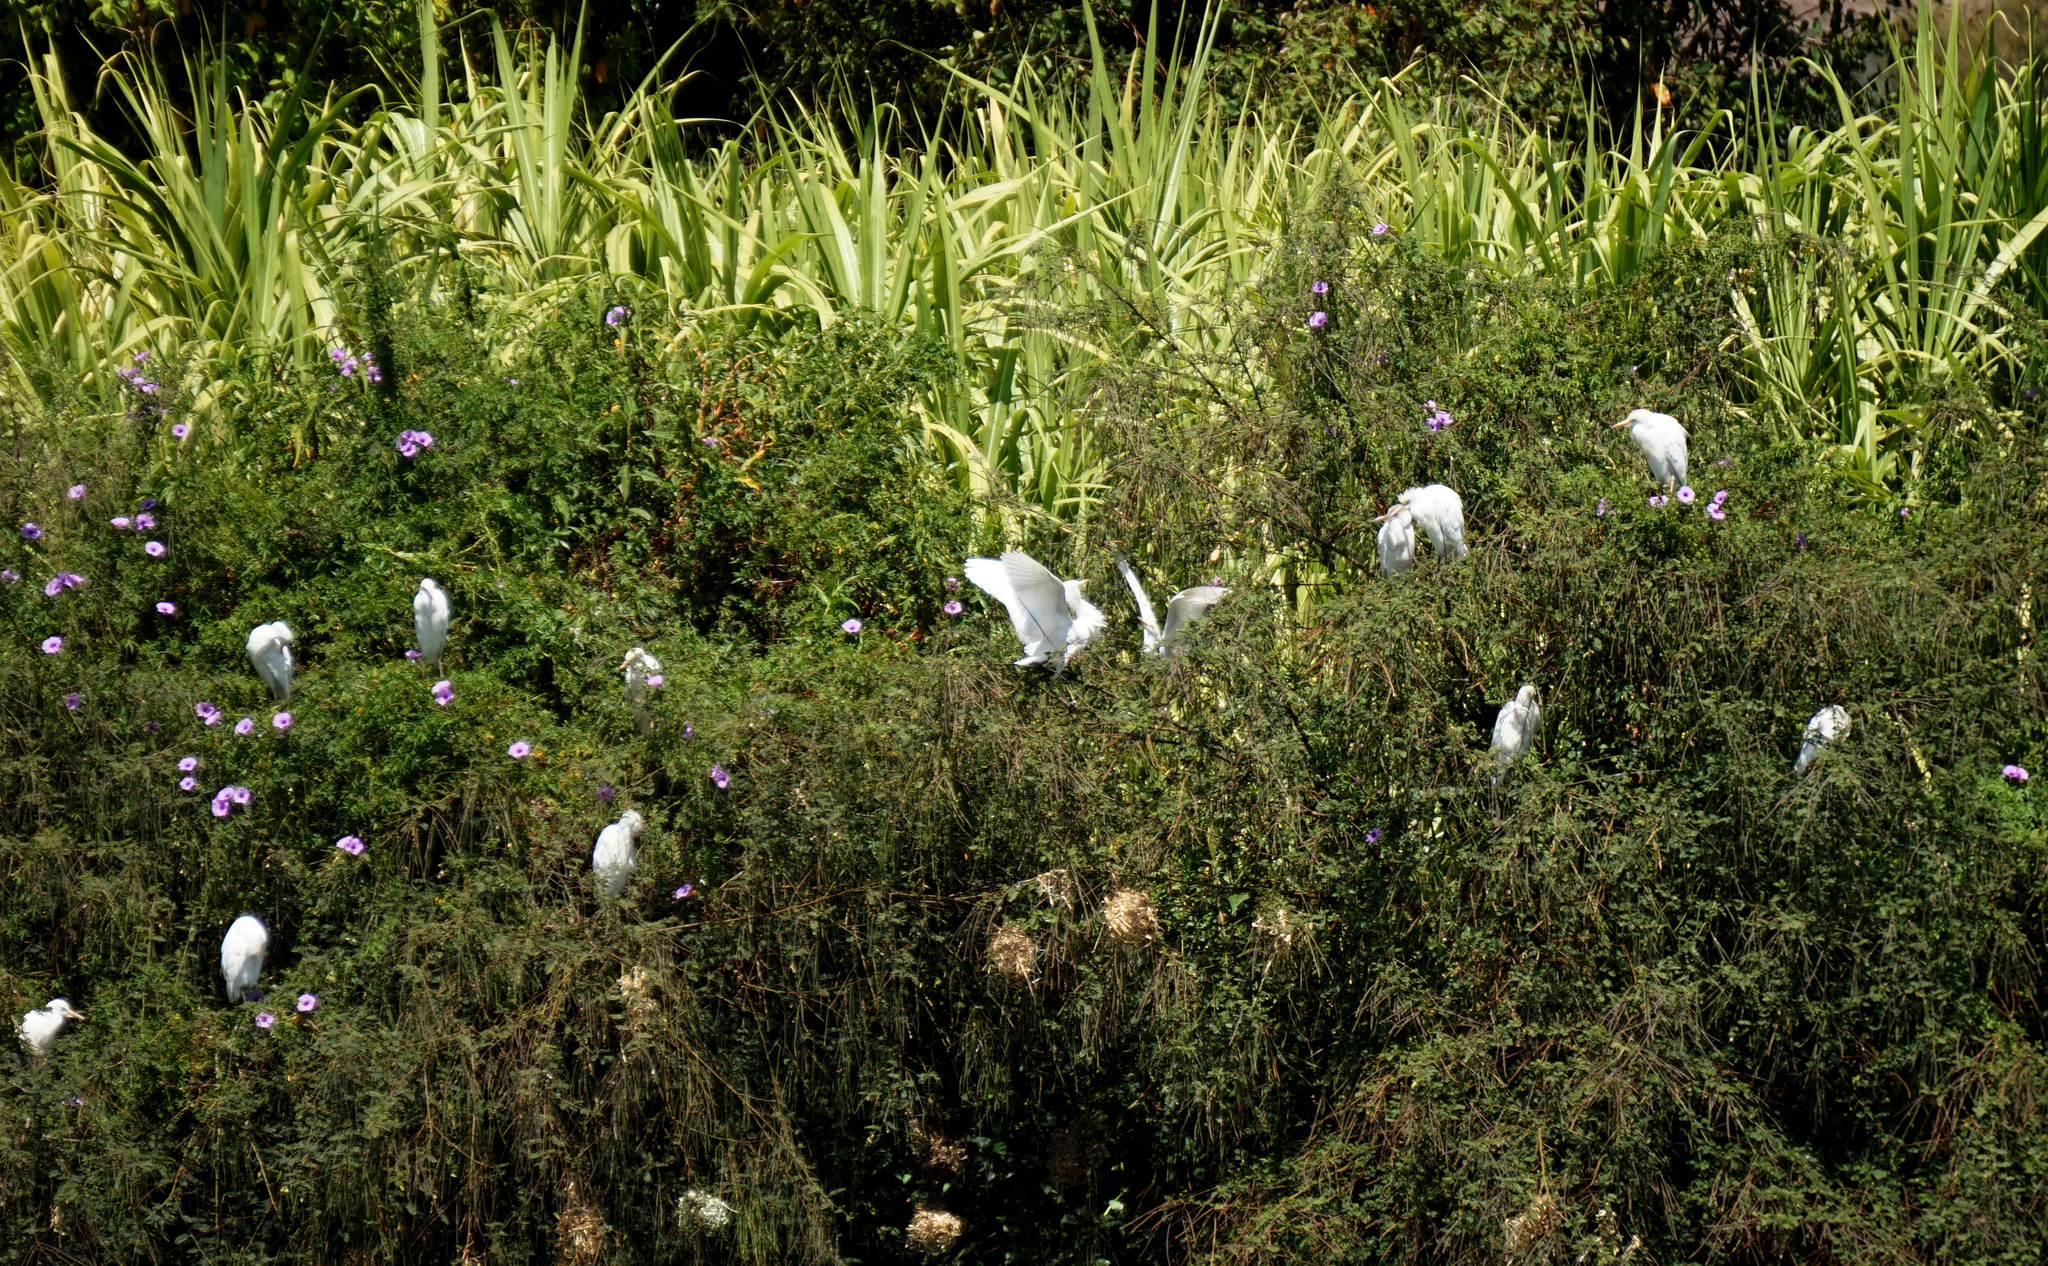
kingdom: Animalia
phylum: Chordata
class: Aves
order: Pelecaniformes
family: Ardeidae
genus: Bubulcus
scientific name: Bubulcus ibis
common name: Cattle egret
